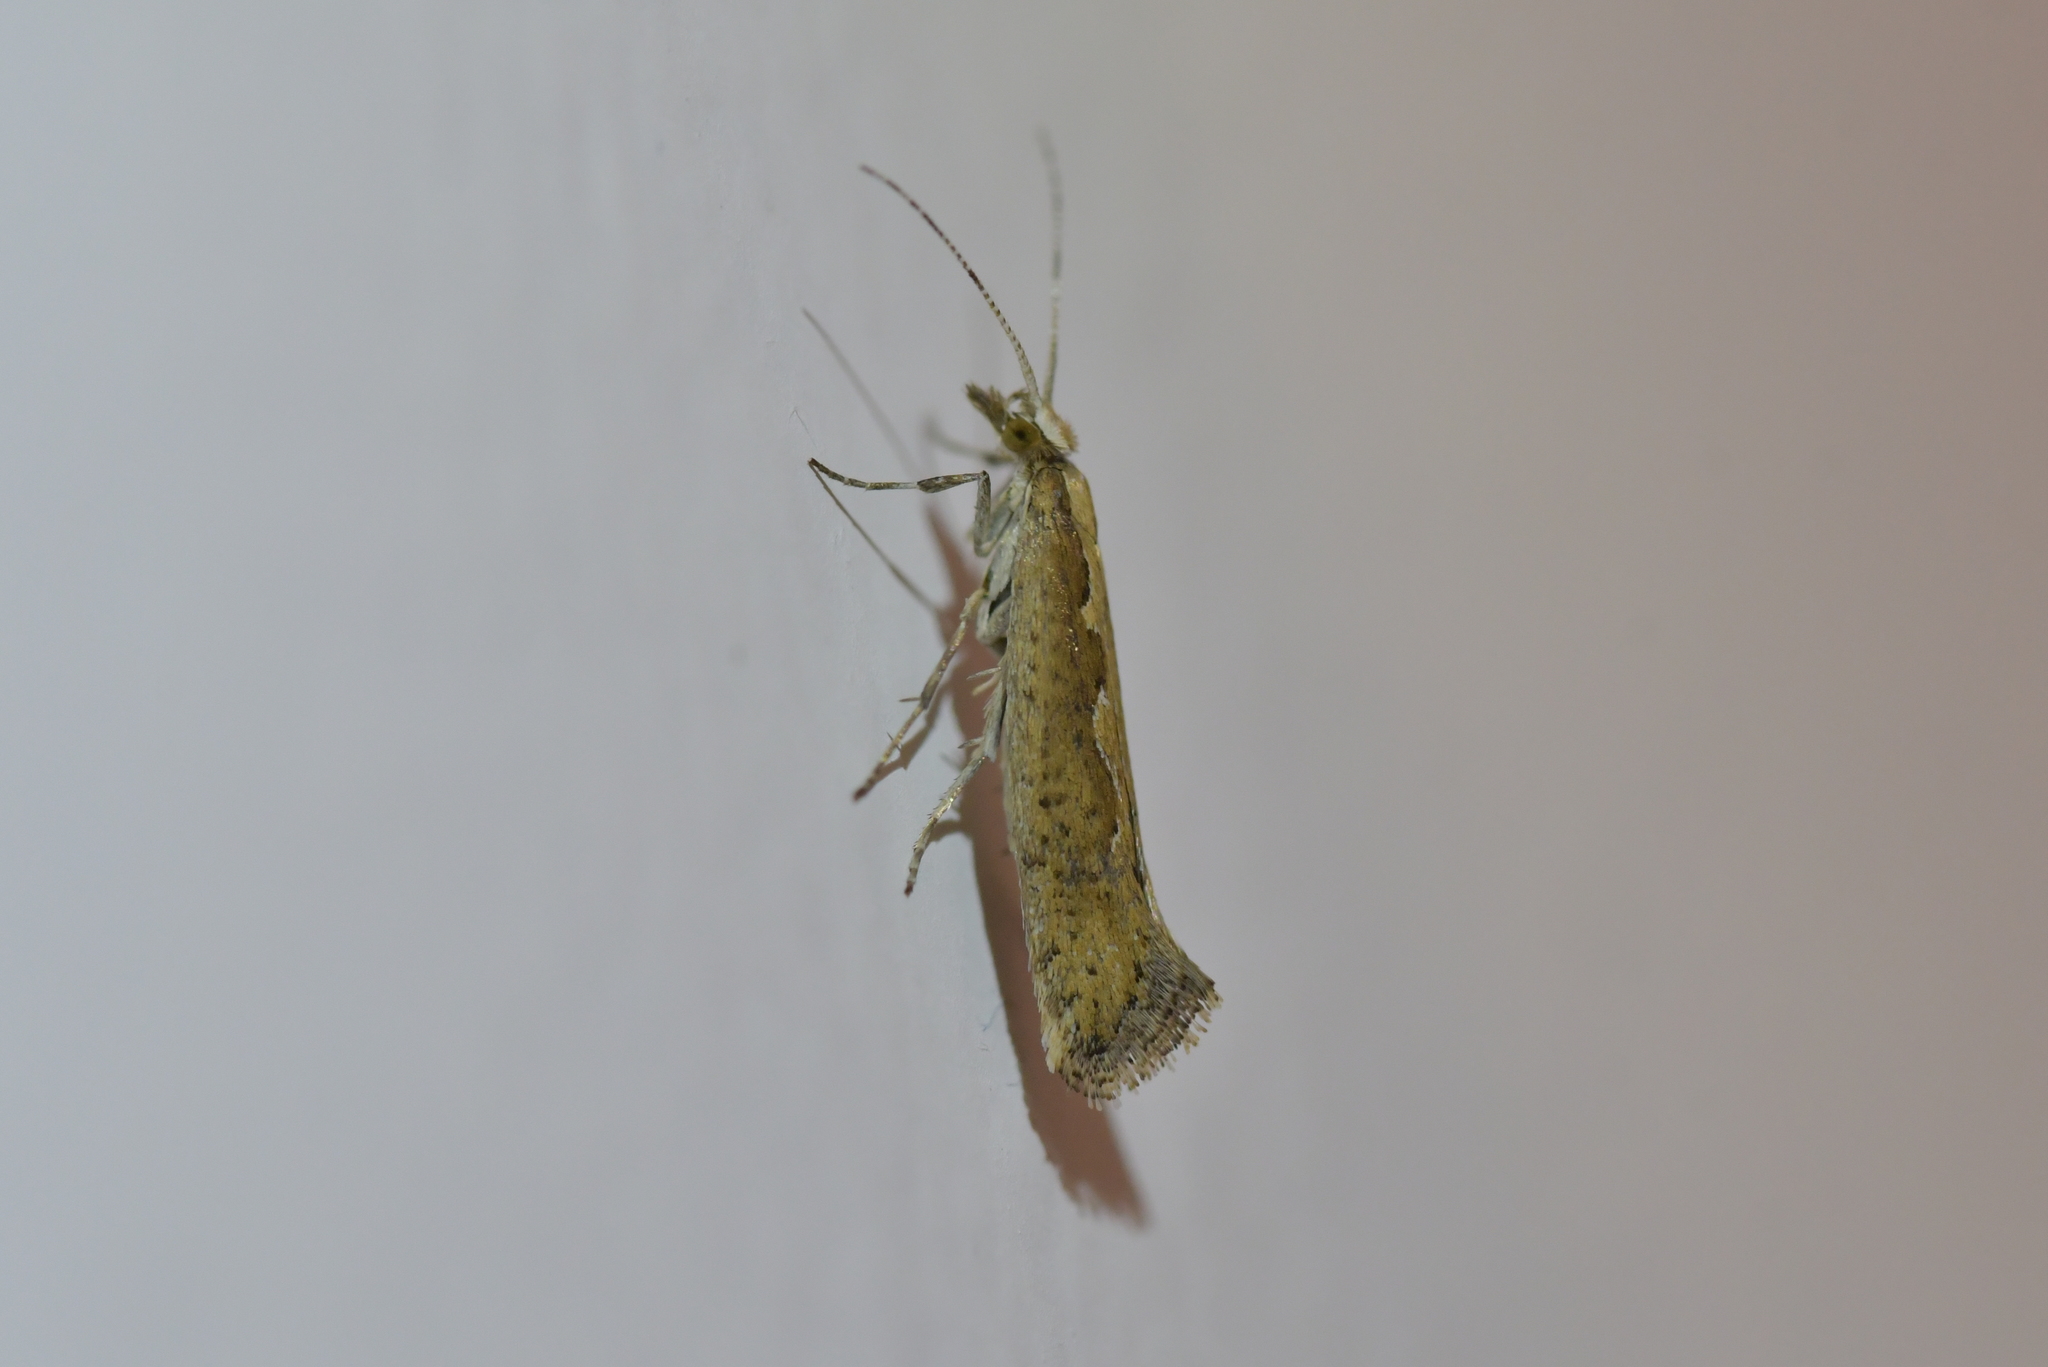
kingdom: Animalia
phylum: Arthropoda
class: Insecta
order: Lepidoptera
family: Plutellidae
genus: Plutella
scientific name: Plutella xylostella
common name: Diamond-back moth
